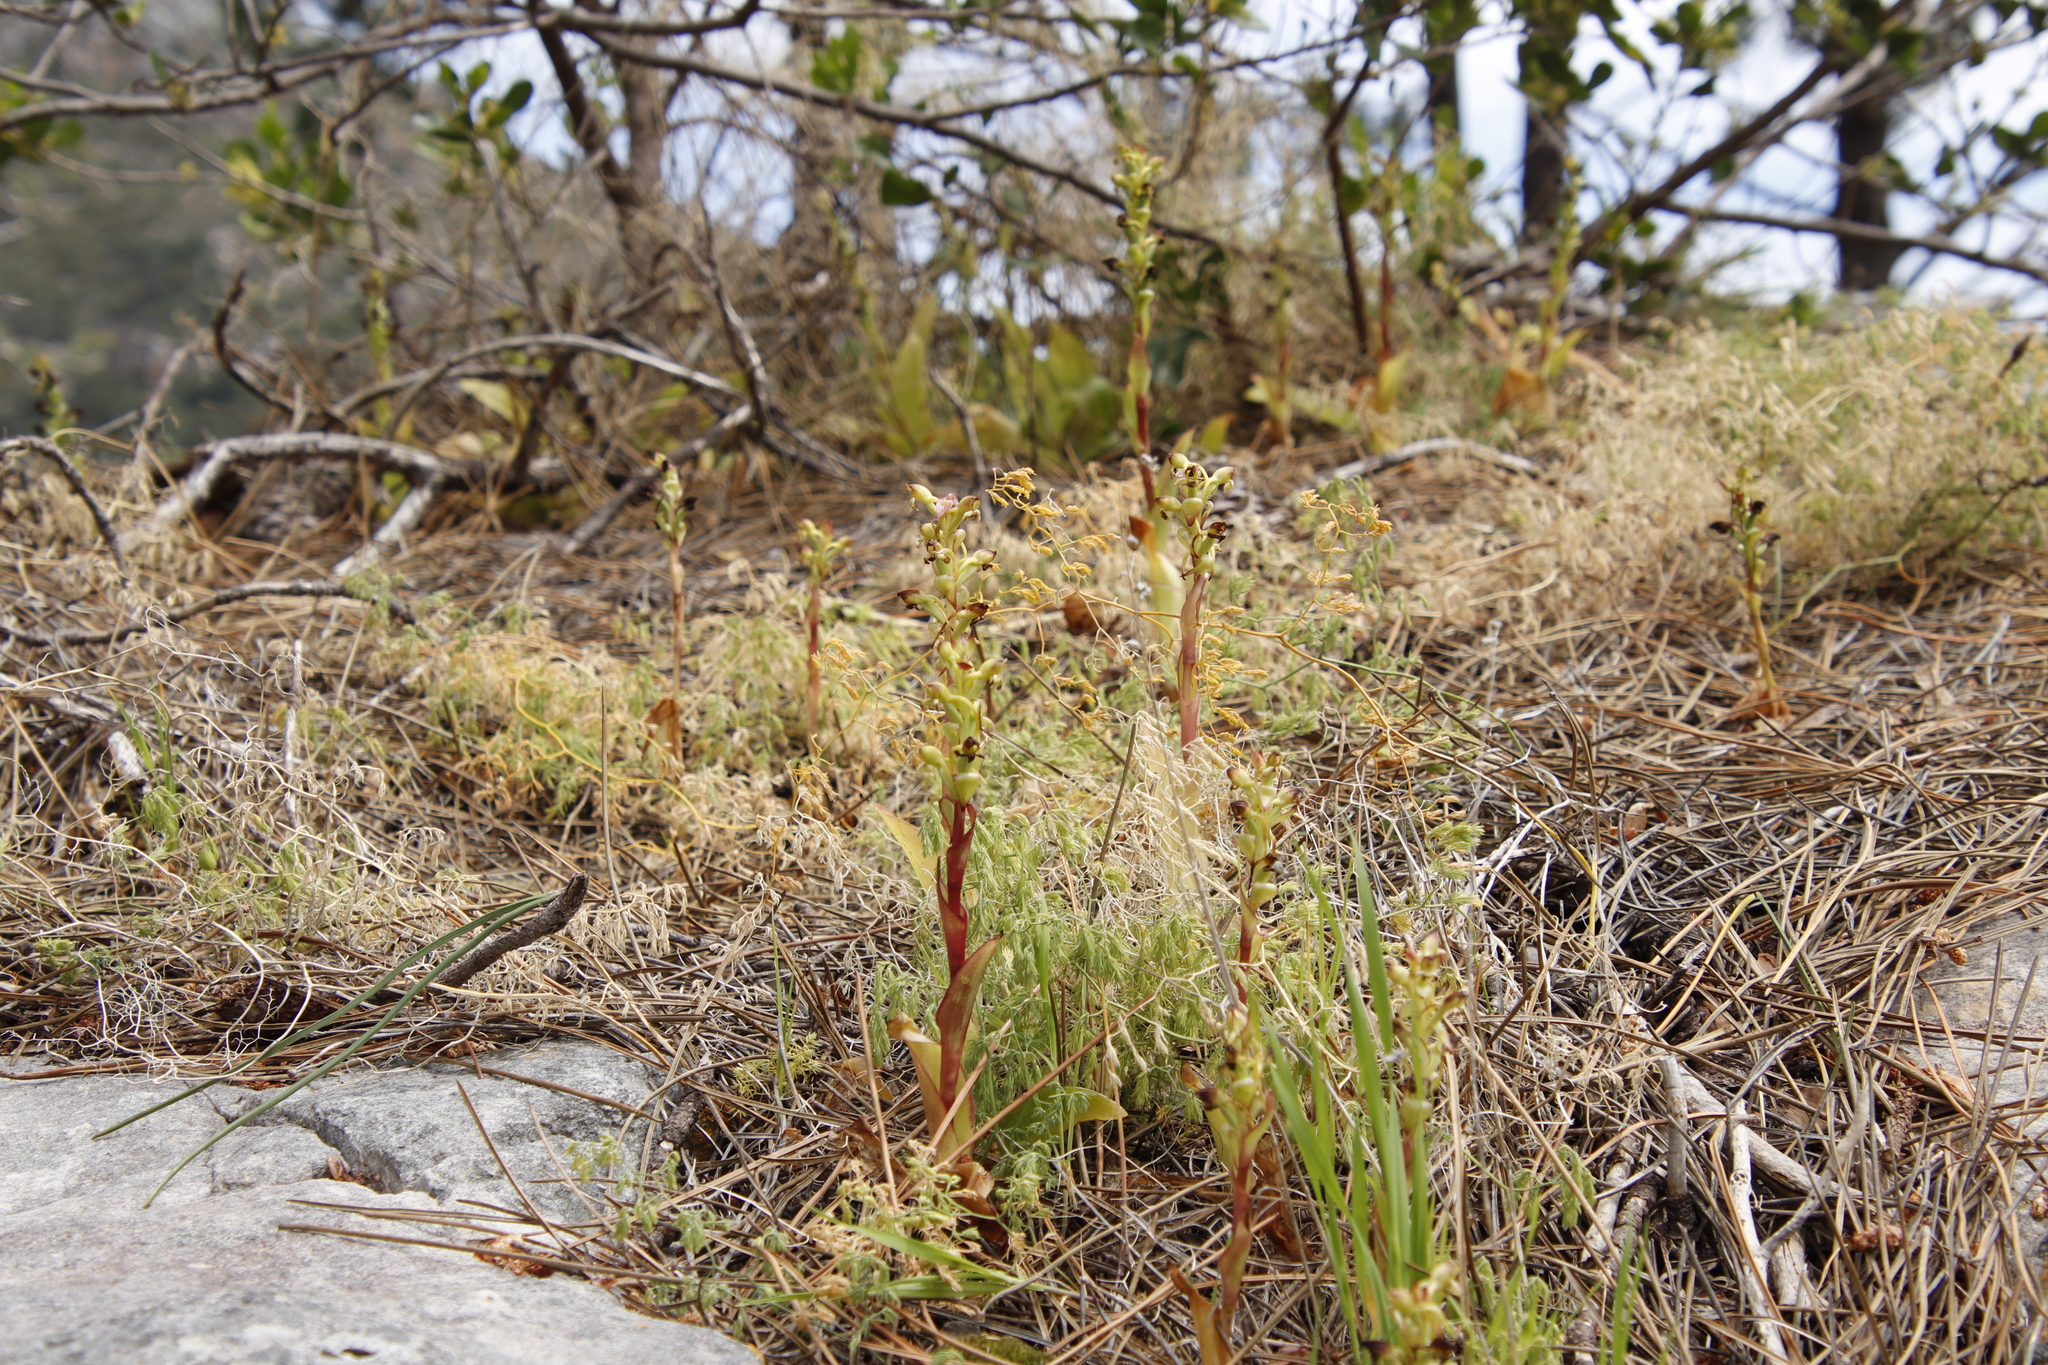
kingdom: Plantae
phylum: Tracheophyta
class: Liliopsida
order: Asparagales
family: Orchidaceae
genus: Satyrium
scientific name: Satyrium odorum
